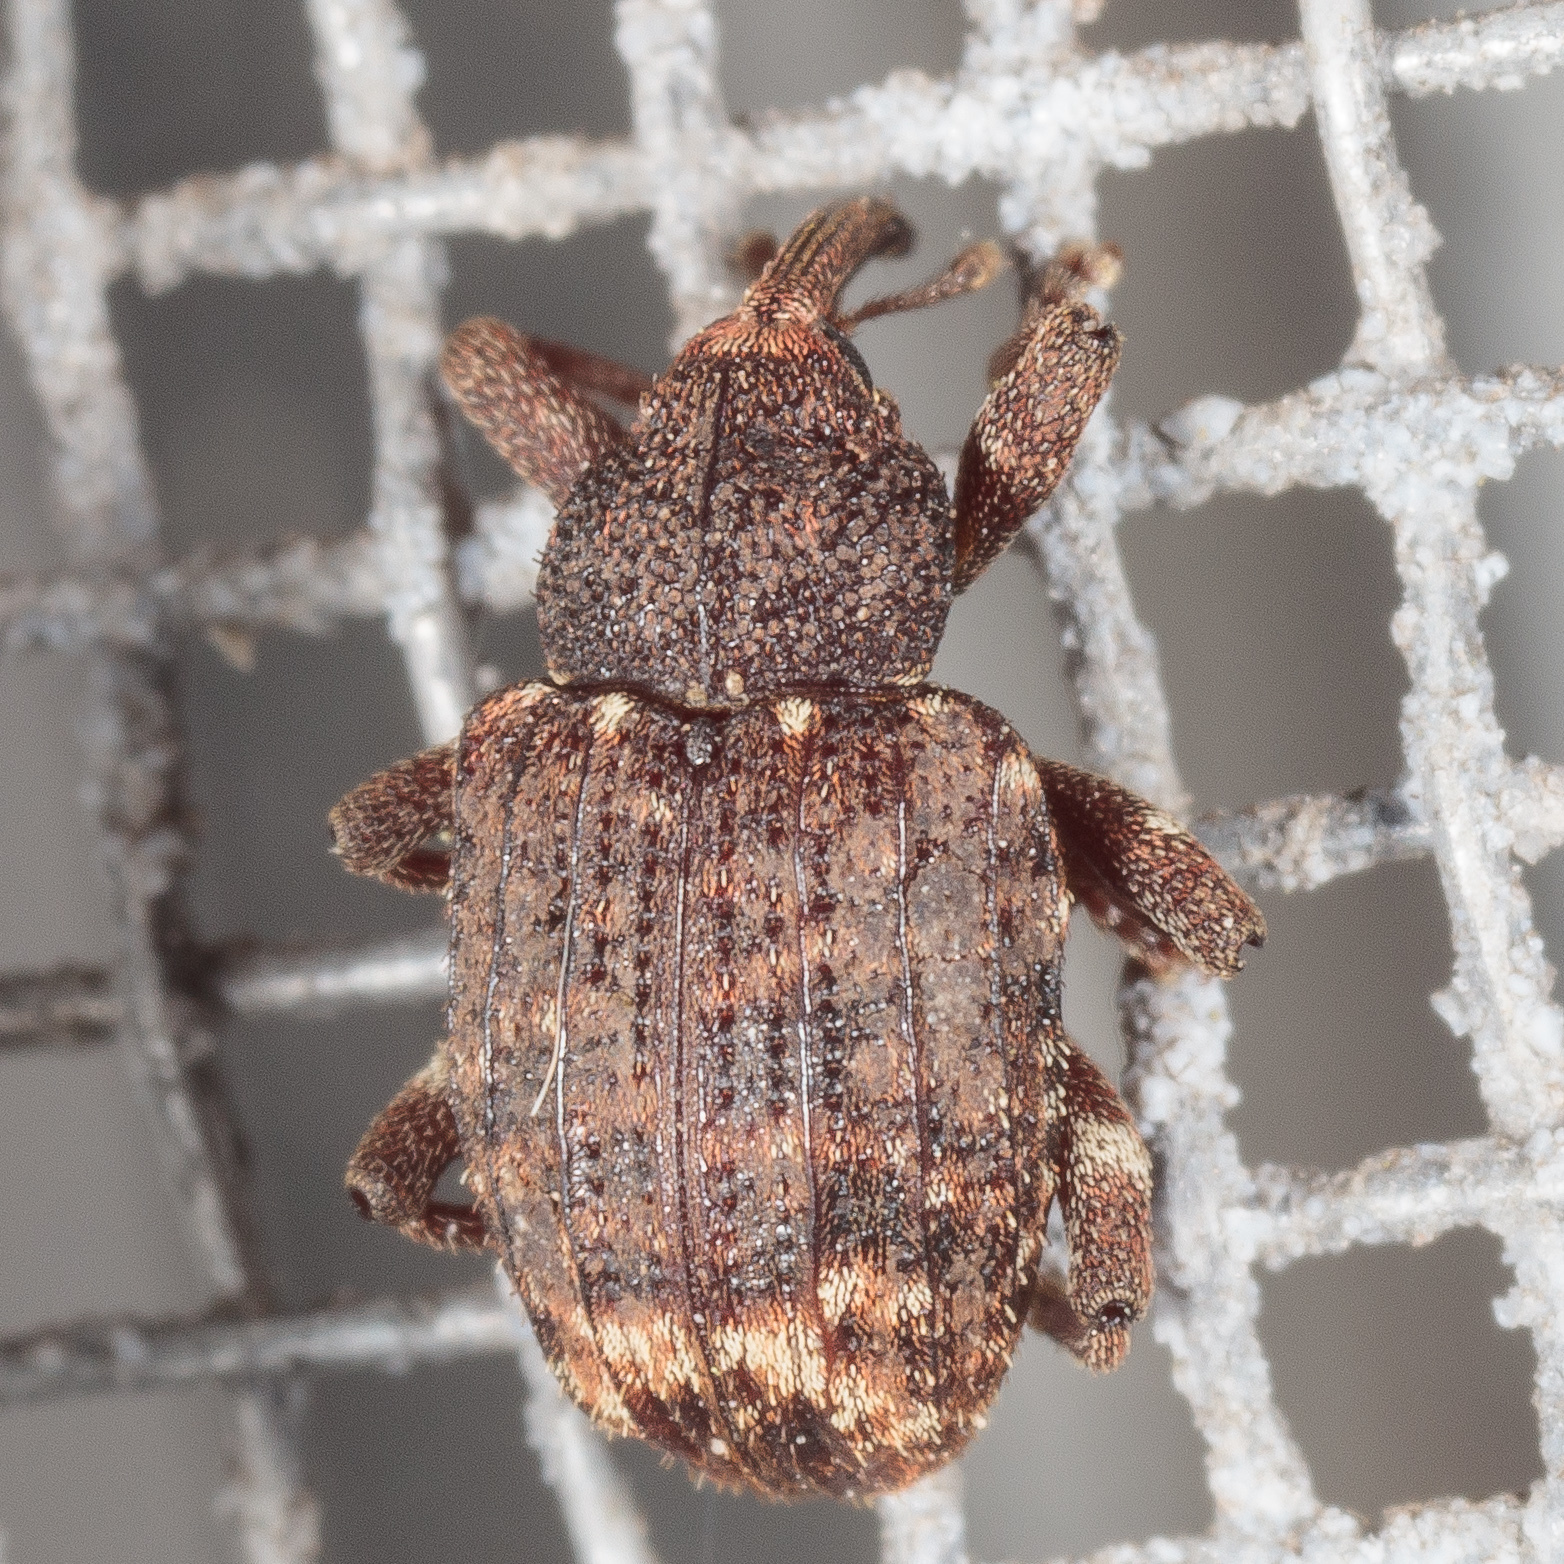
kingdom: Animalia
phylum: Arthropoda
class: Insecta
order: Coleoptera
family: Curculionidae
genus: Conotrachelus
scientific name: Conotrachelus posticatus
